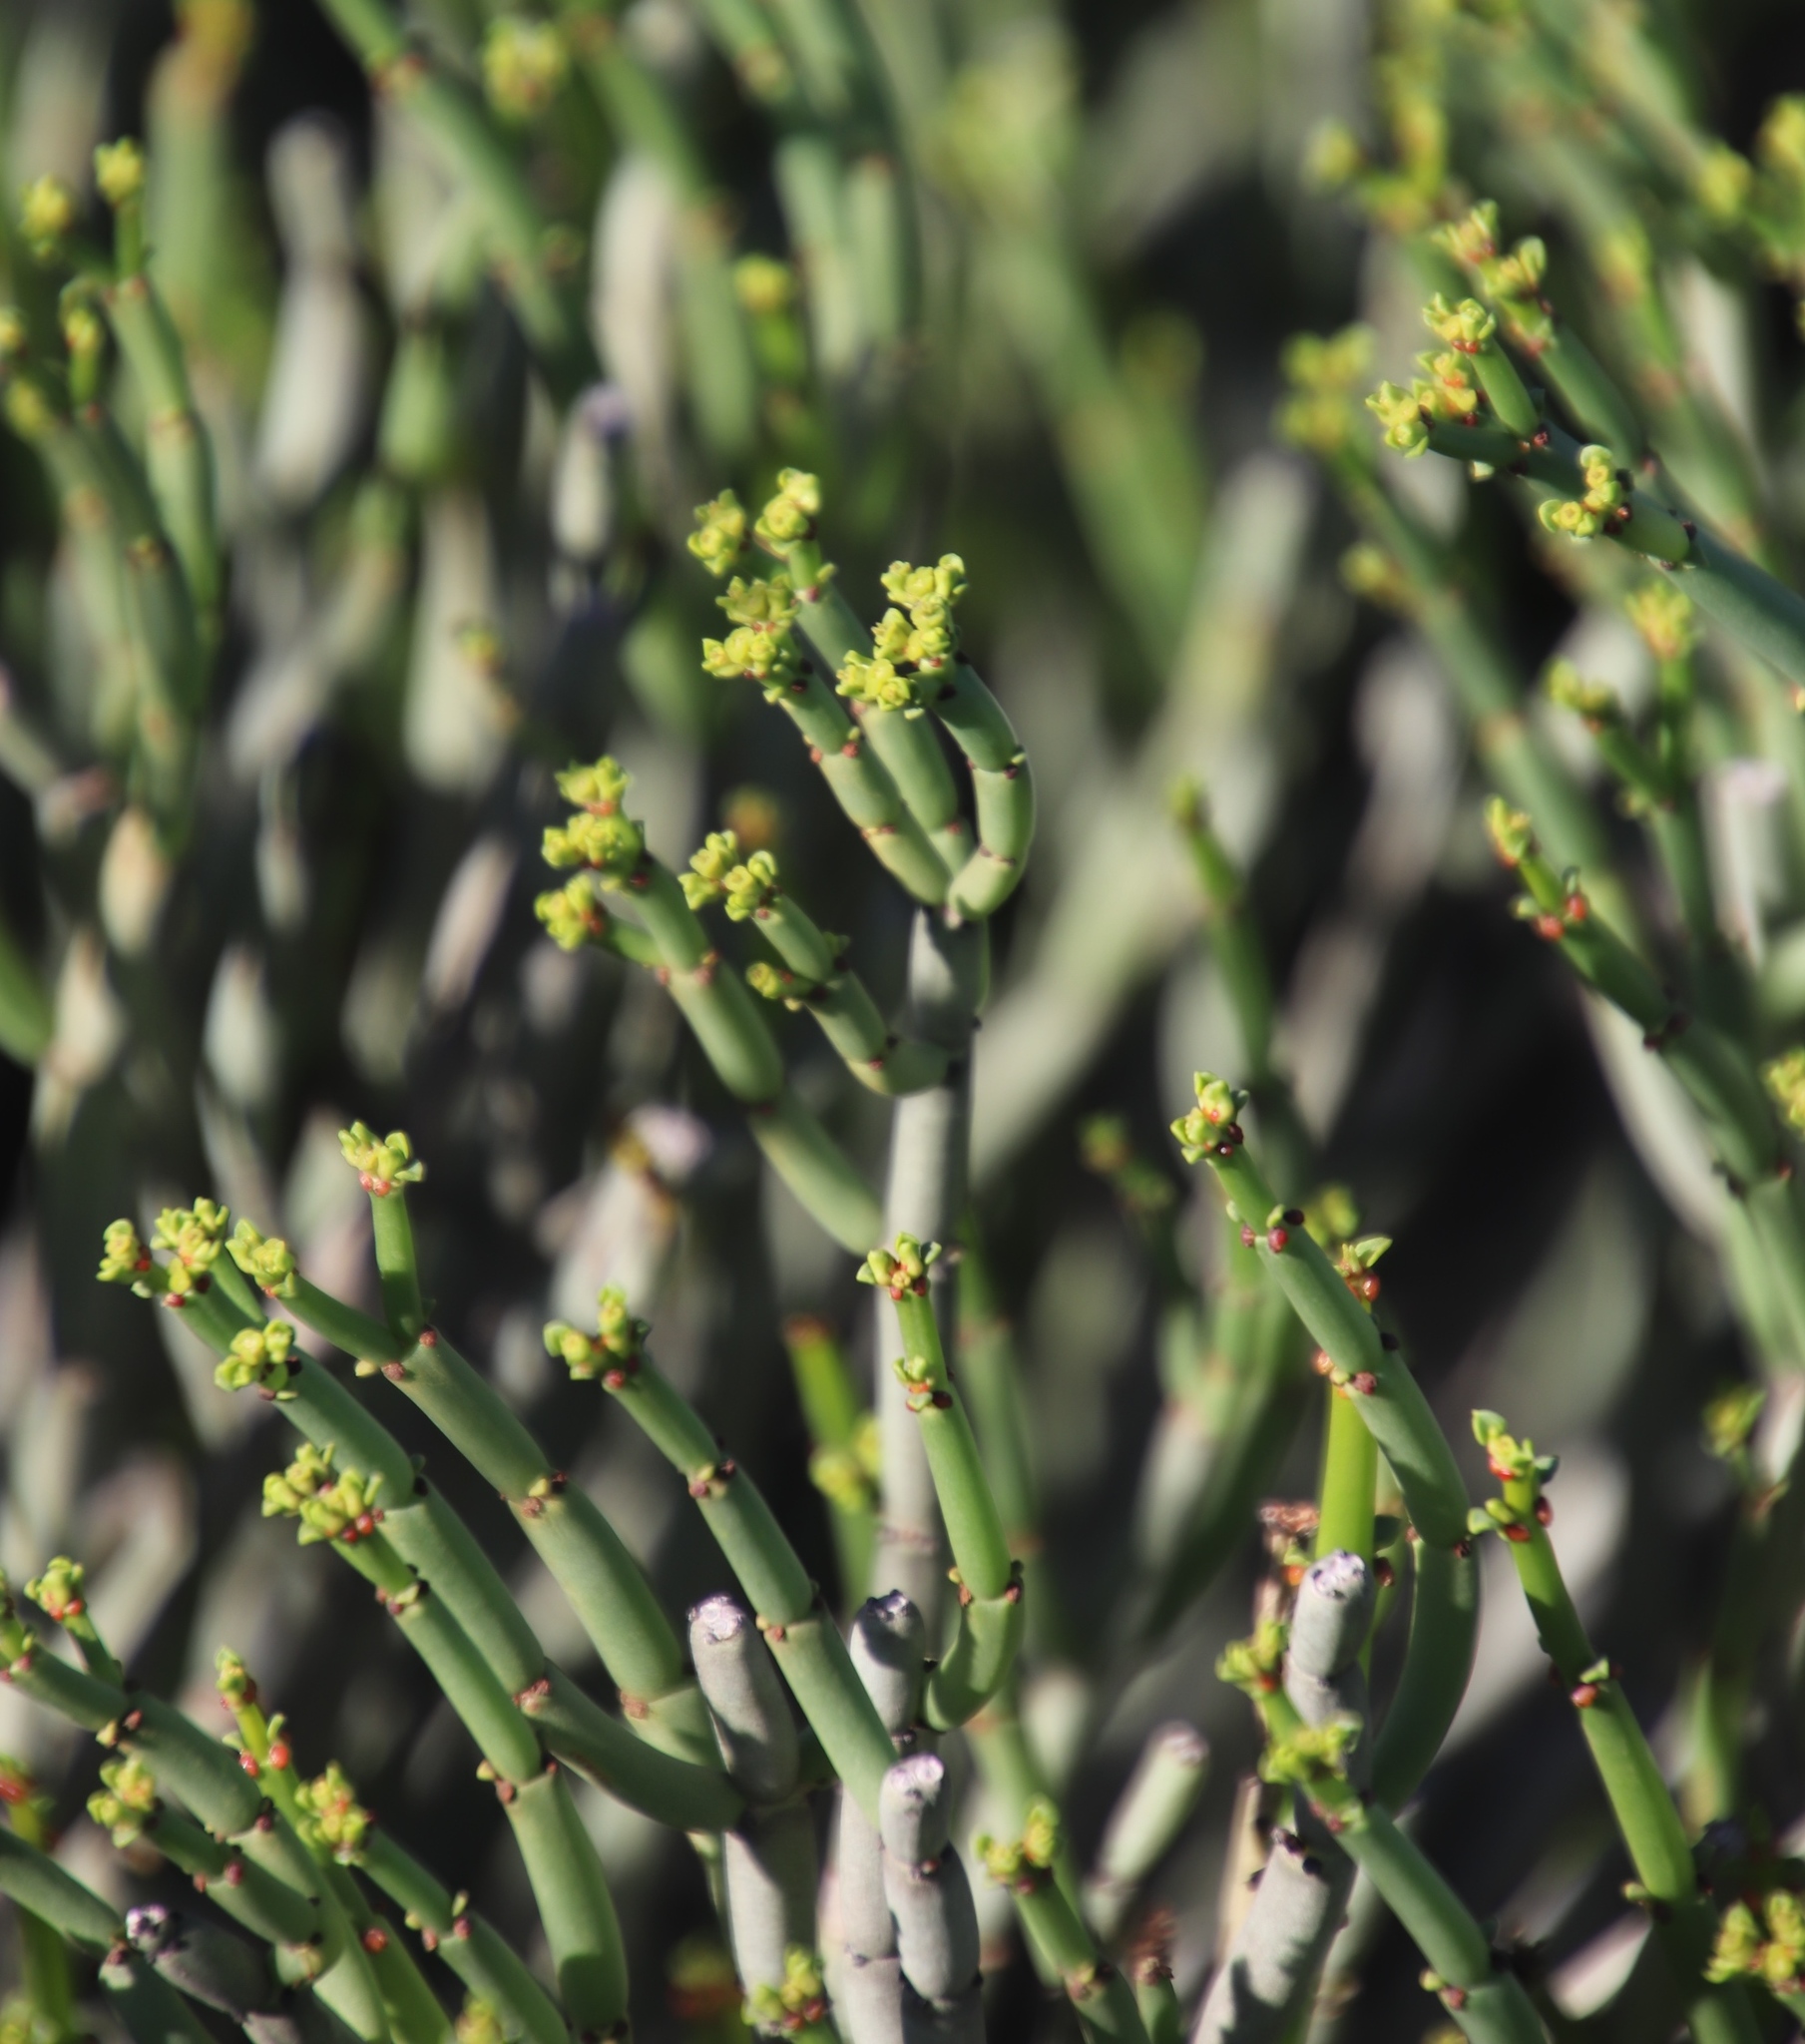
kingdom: Plantae
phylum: Tracheophyta
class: Magnoliopsida
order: Malpighiales
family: Euphorbiaceae
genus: Euphorbia
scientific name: Euphorbia burmanni
